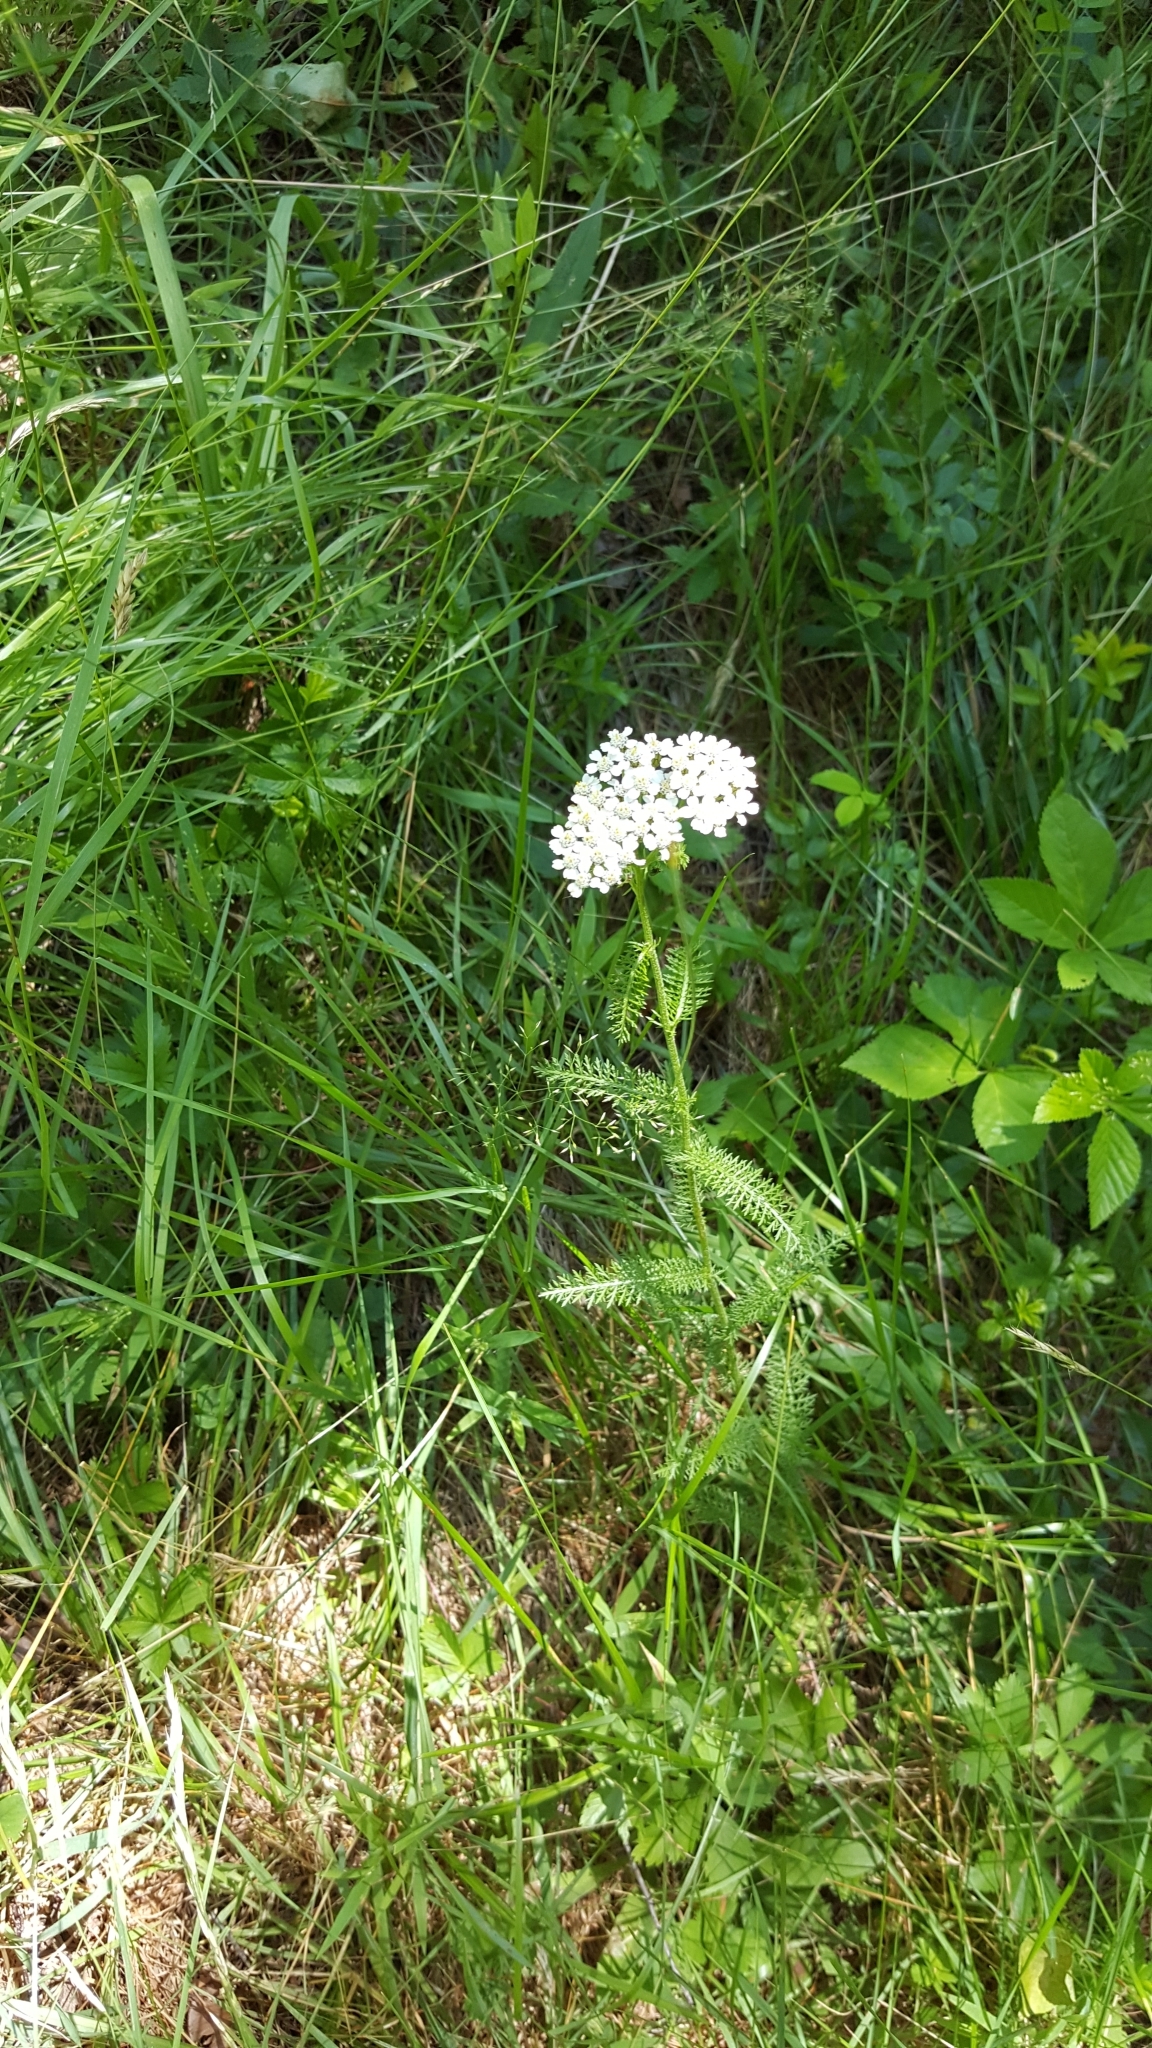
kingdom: Plantae
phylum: Tracheophyta
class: Magnoliopsida
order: Asterales
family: Asteraceae
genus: Achillea
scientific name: Achillea millefolium
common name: Yarrow
